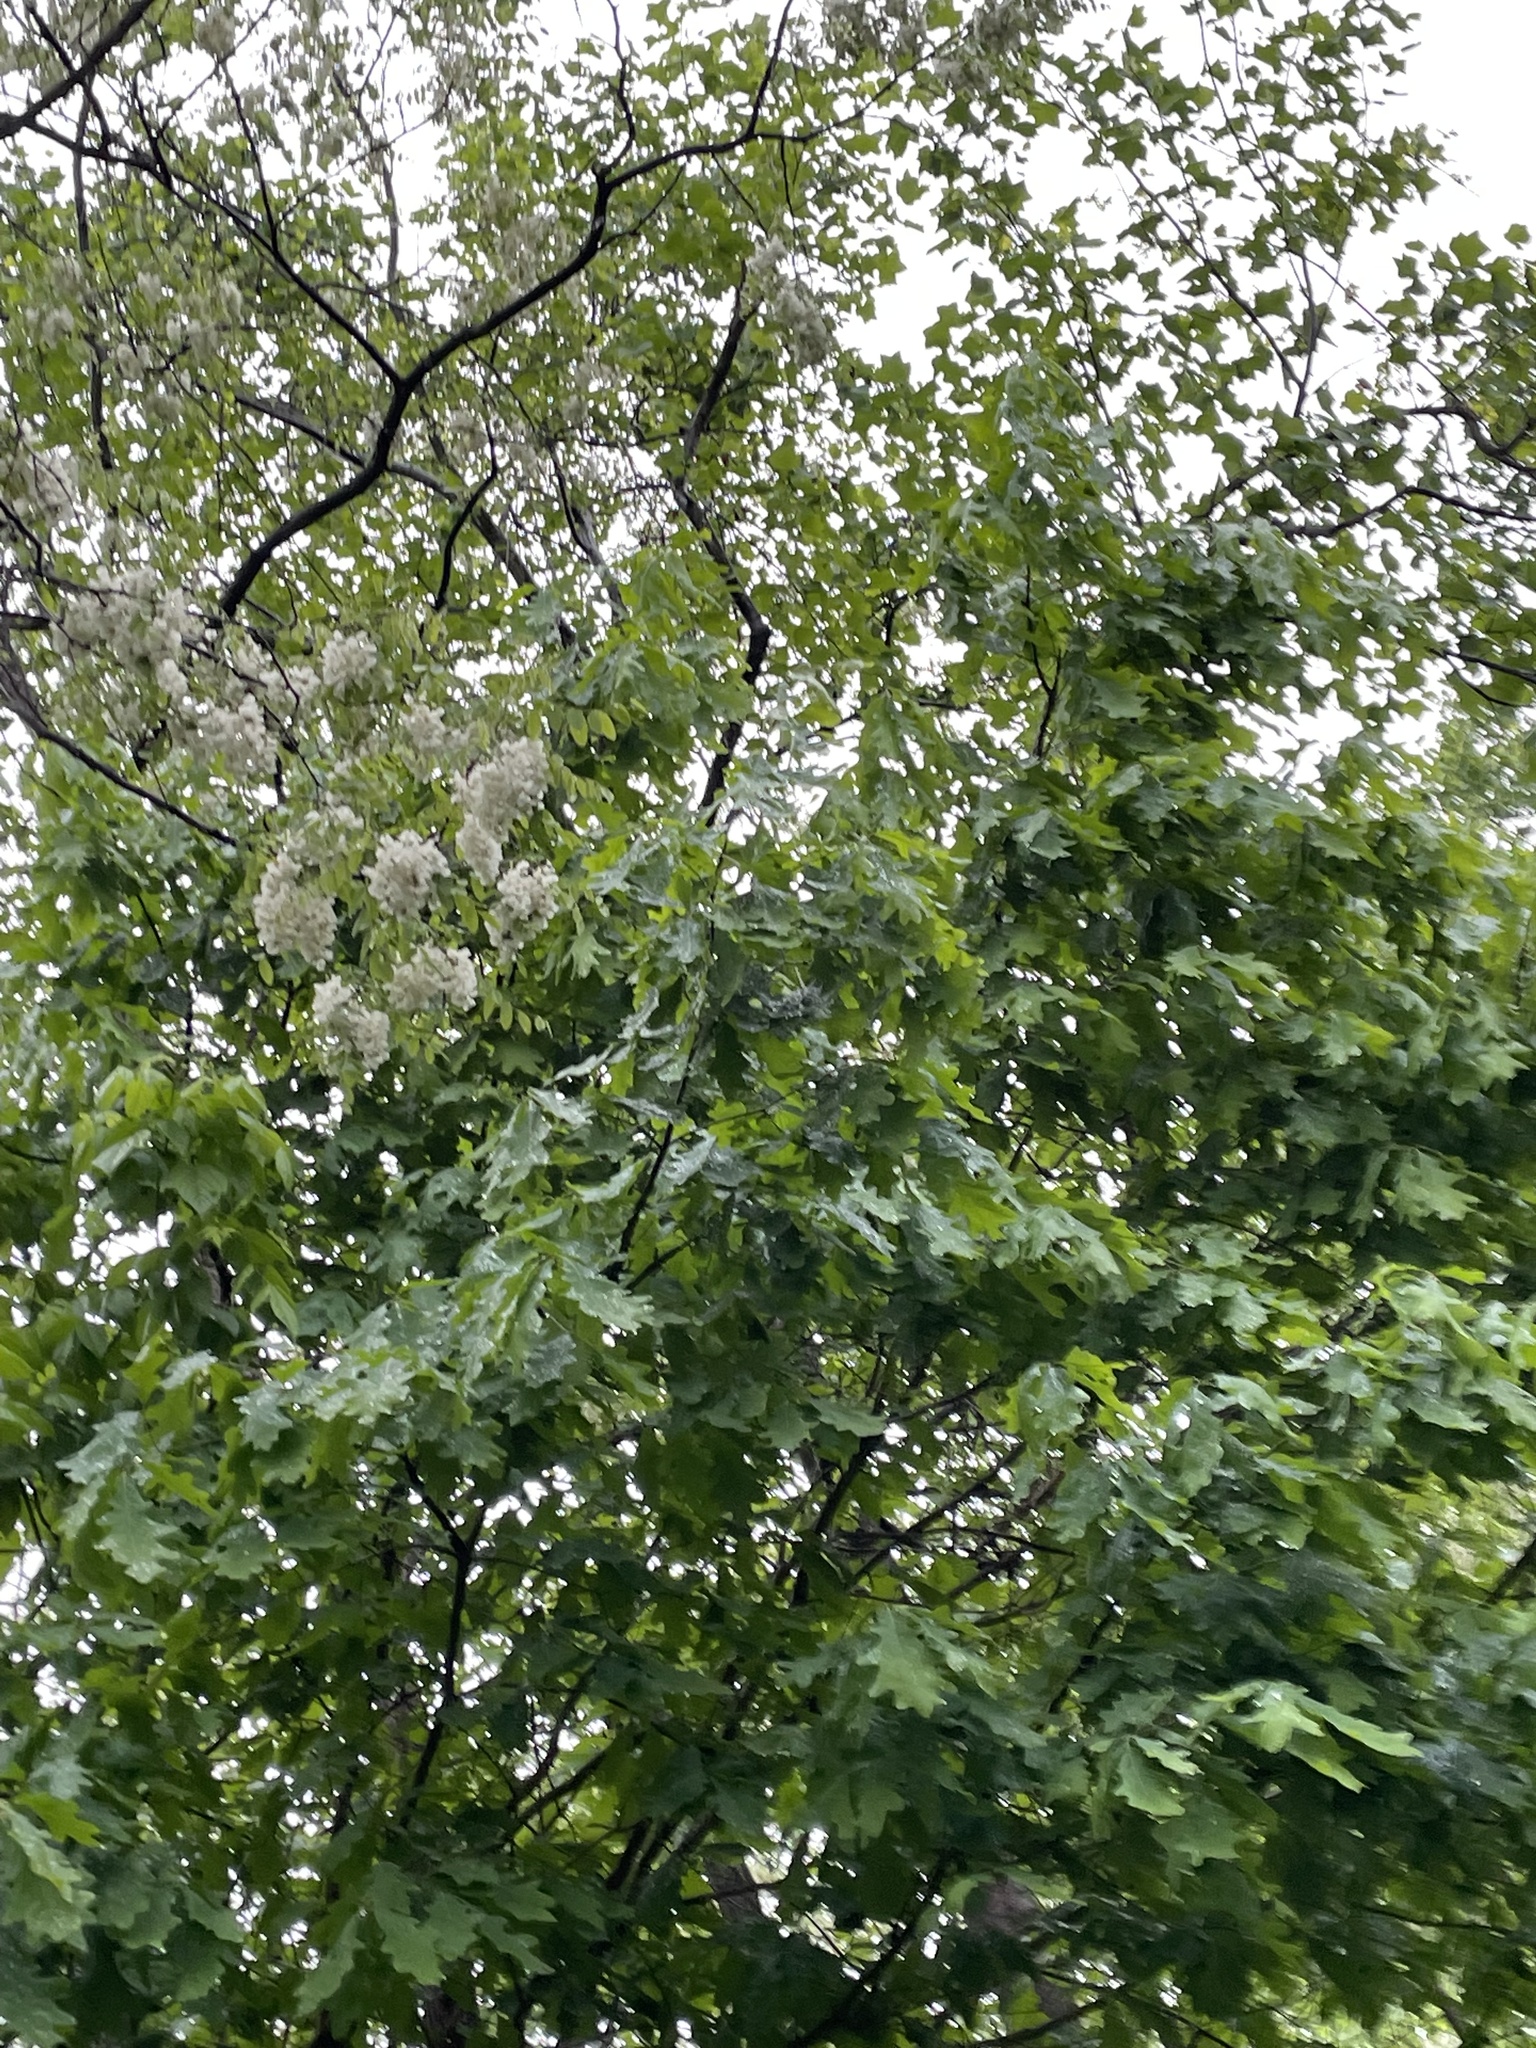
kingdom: Plantae
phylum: Tracheophyta
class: Magnoliopsida
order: Fabales
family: Fabaceae
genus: Robinia
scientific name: Robinia pseudoacacia
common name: Black locust
